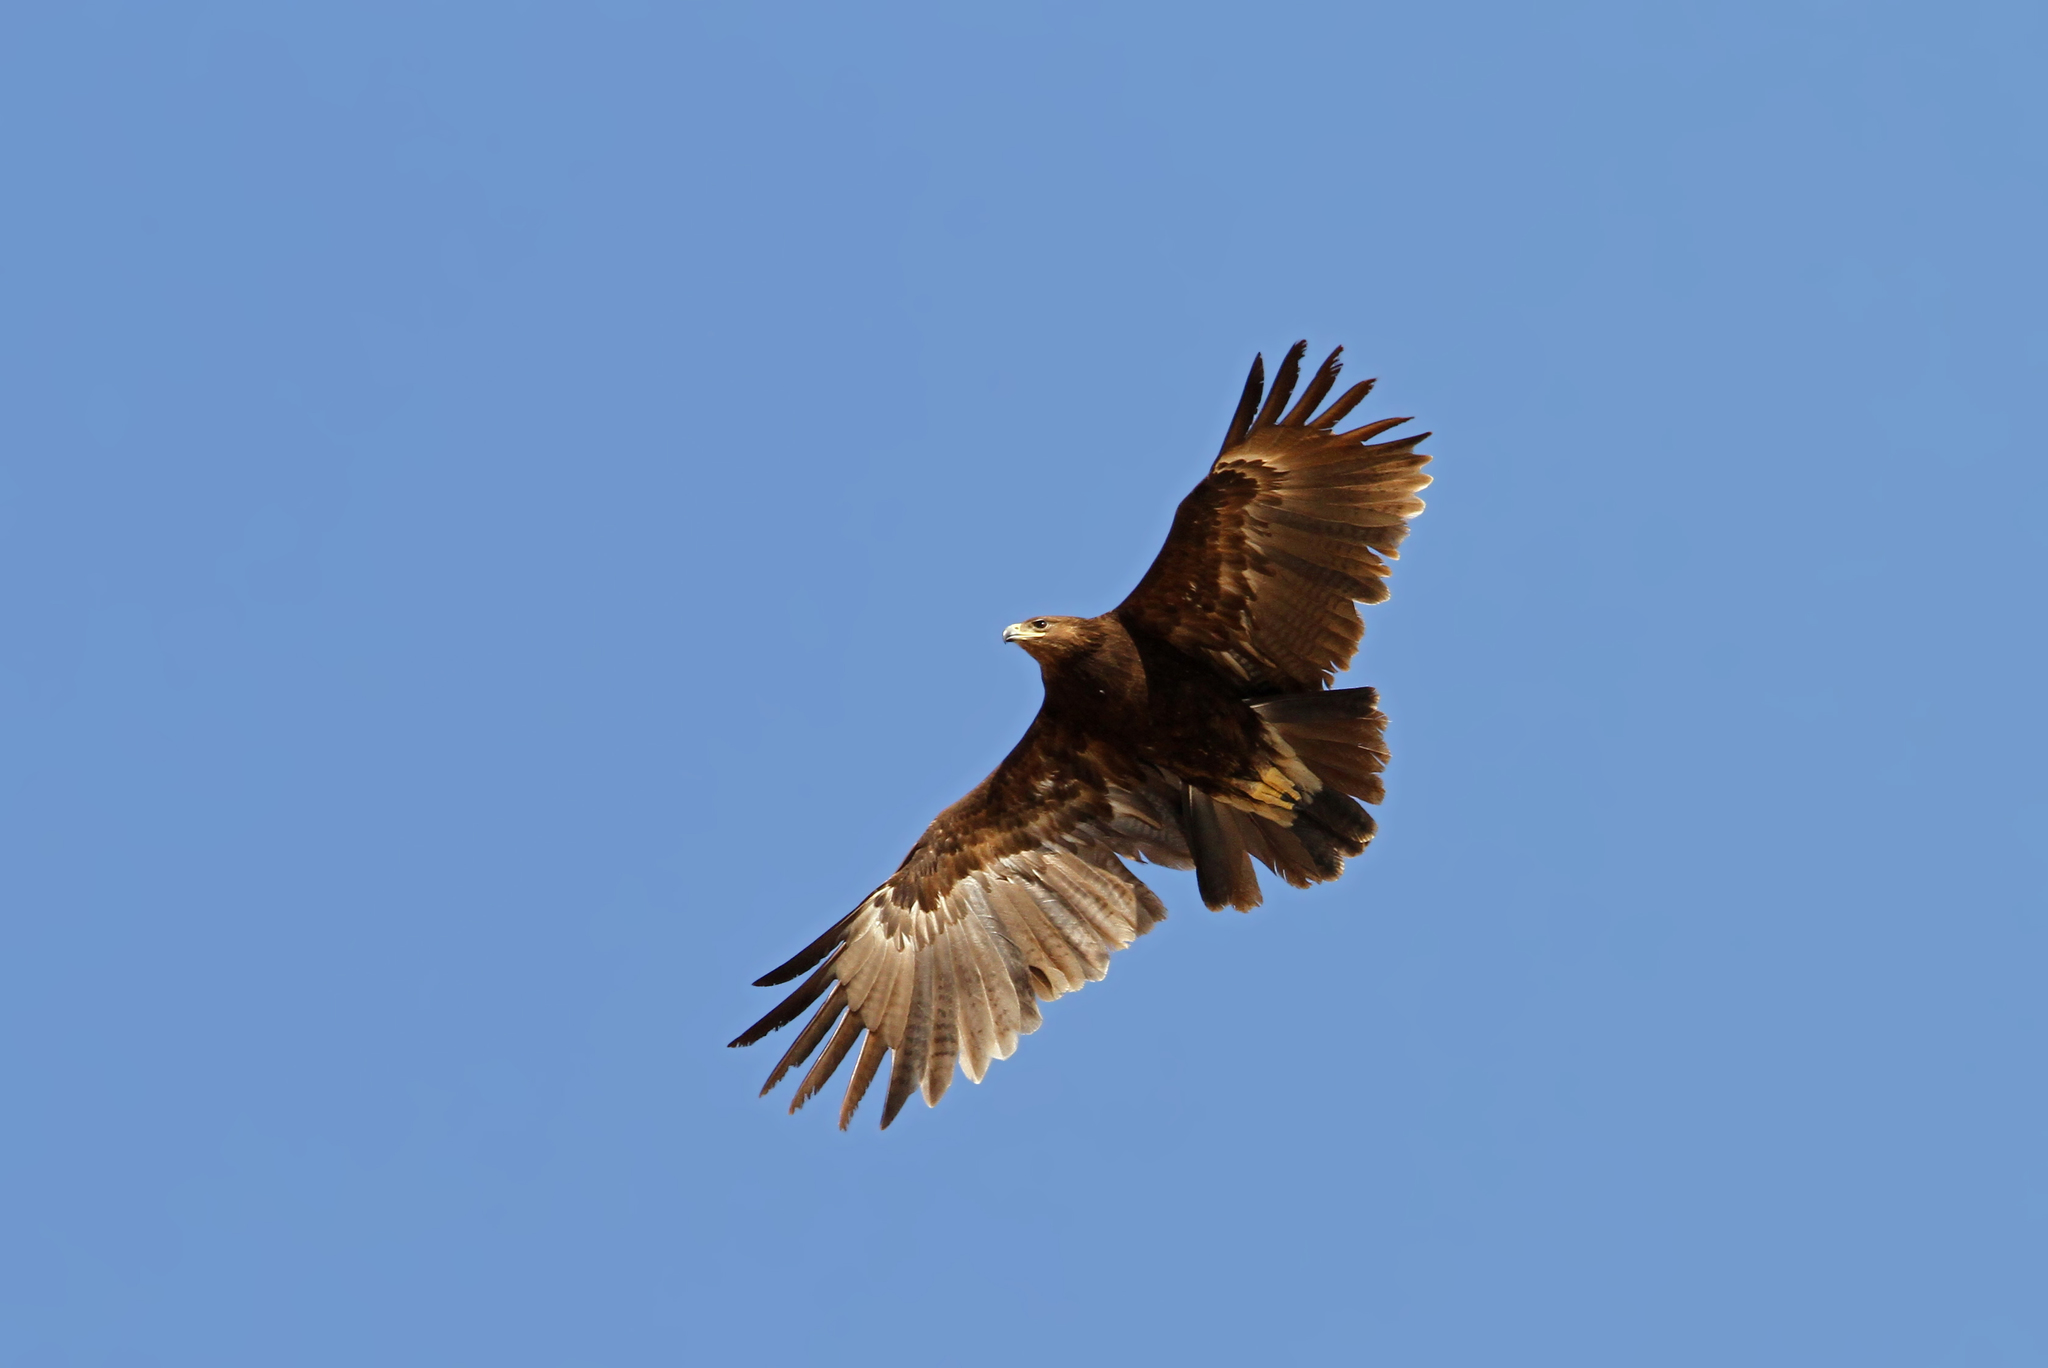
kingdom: Animalia
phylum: Chordata
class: Aves
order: Accipitriformes
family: Accipitridae
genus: Aquila
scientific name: Aquila nipalensis
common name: Steppe eagle
